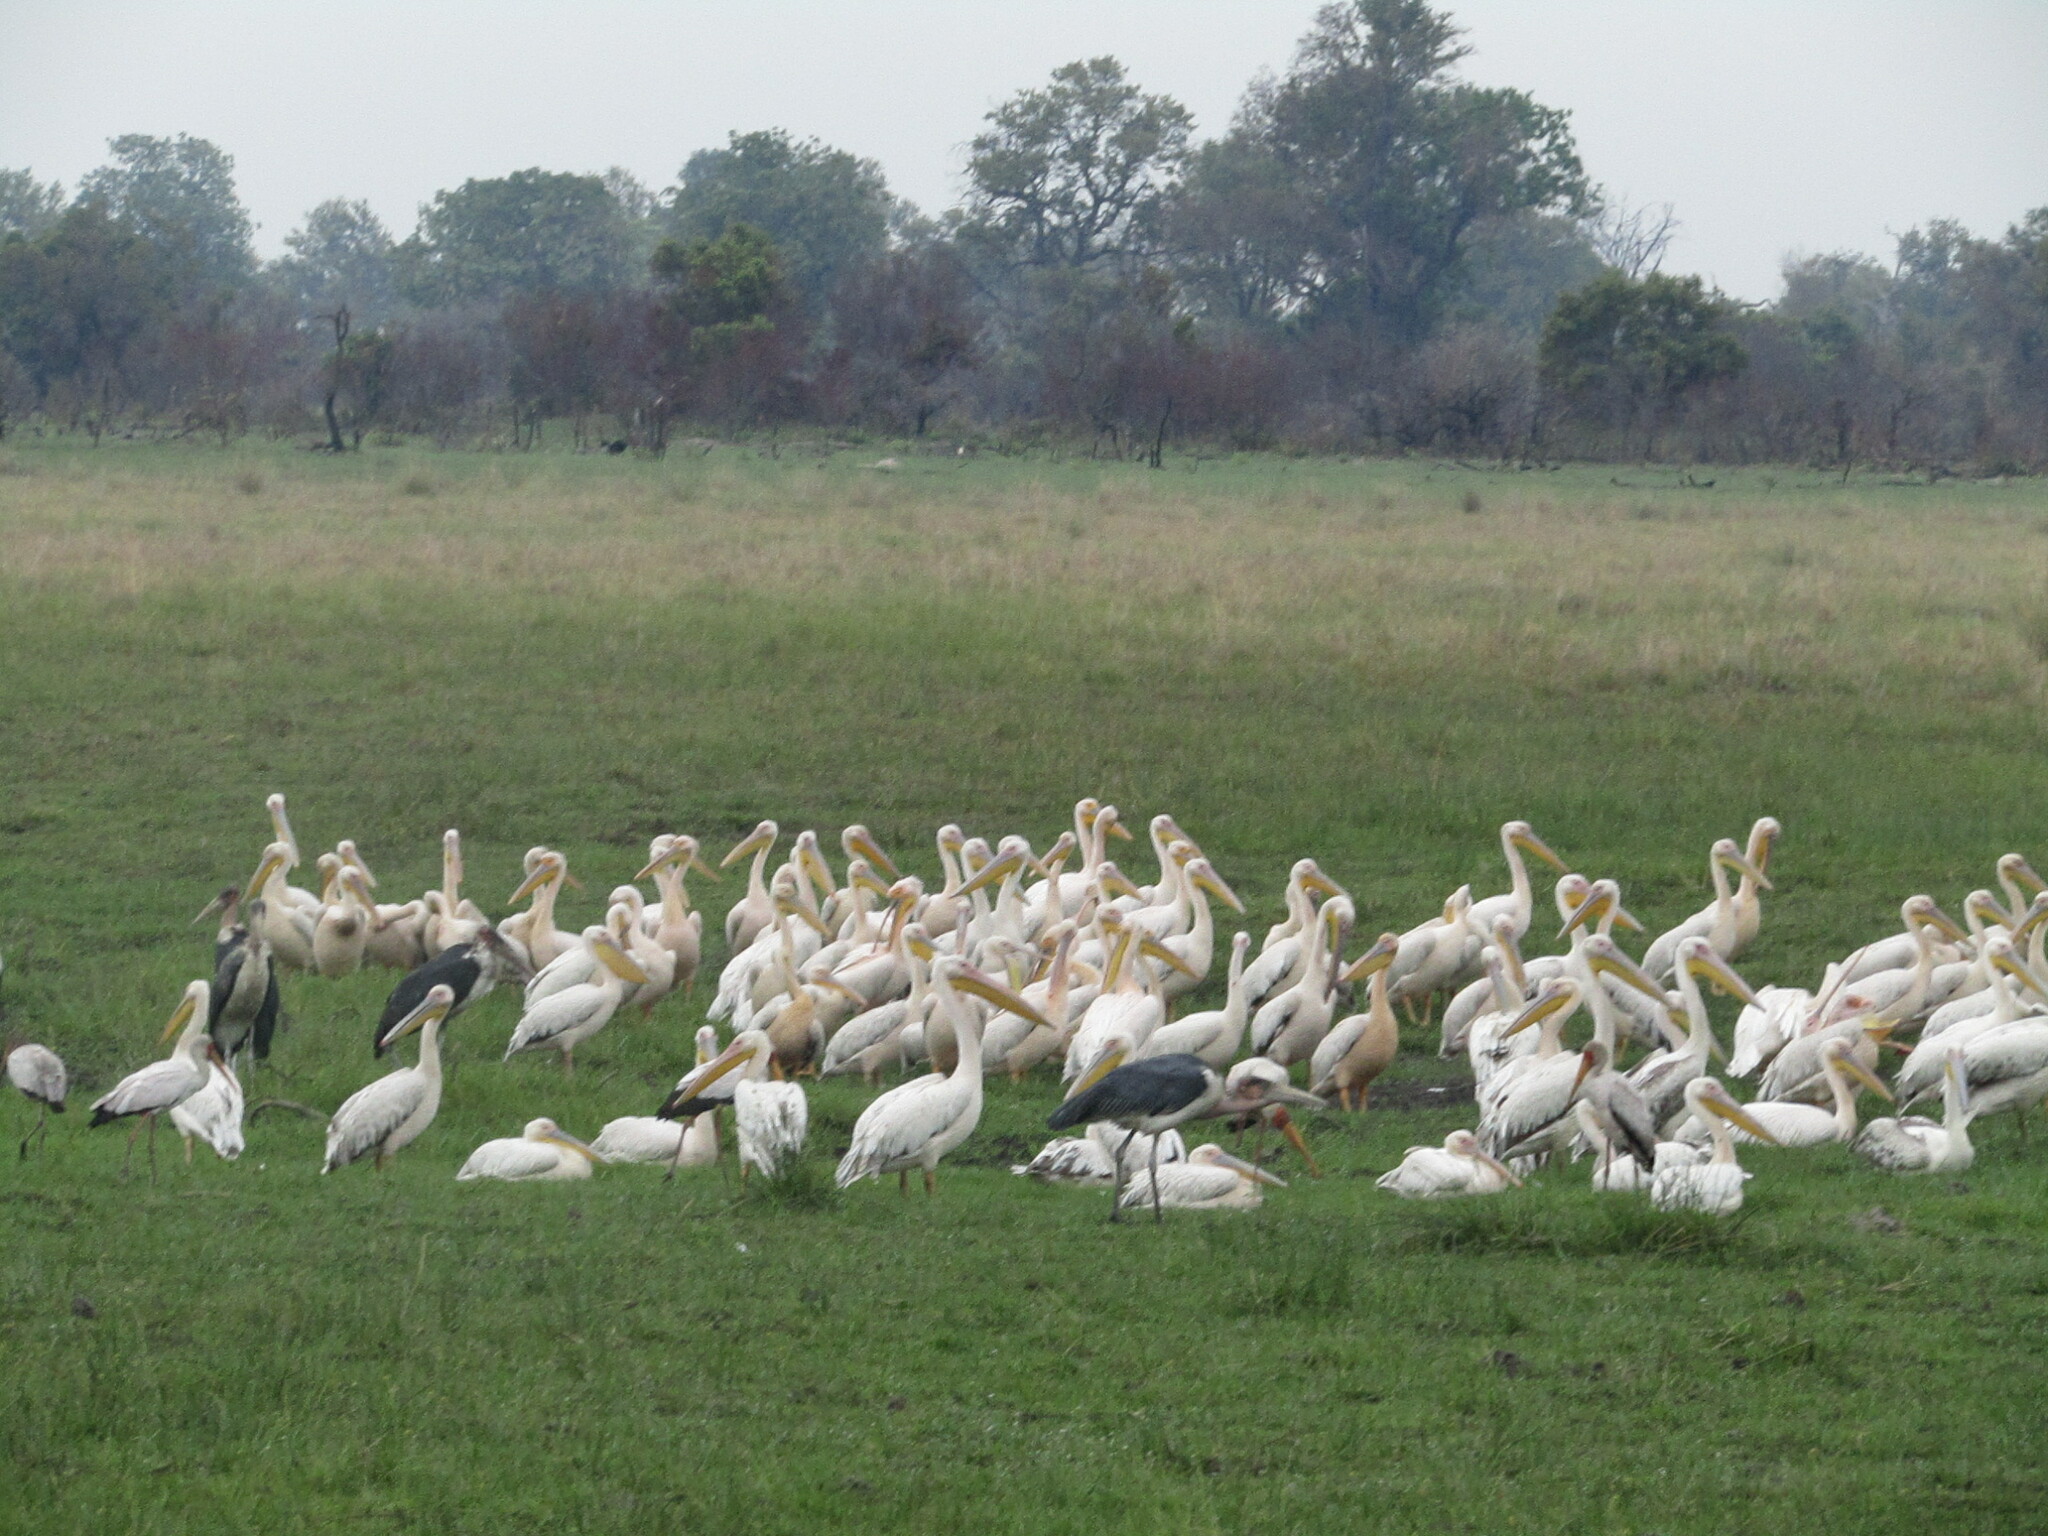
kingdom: Animalia
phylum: Chordata
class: Aves
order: Pelecaniformes
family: Pelecanidae
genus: Pelecanus
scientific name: Pelecanus onocrotalus
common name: Great white pelican
